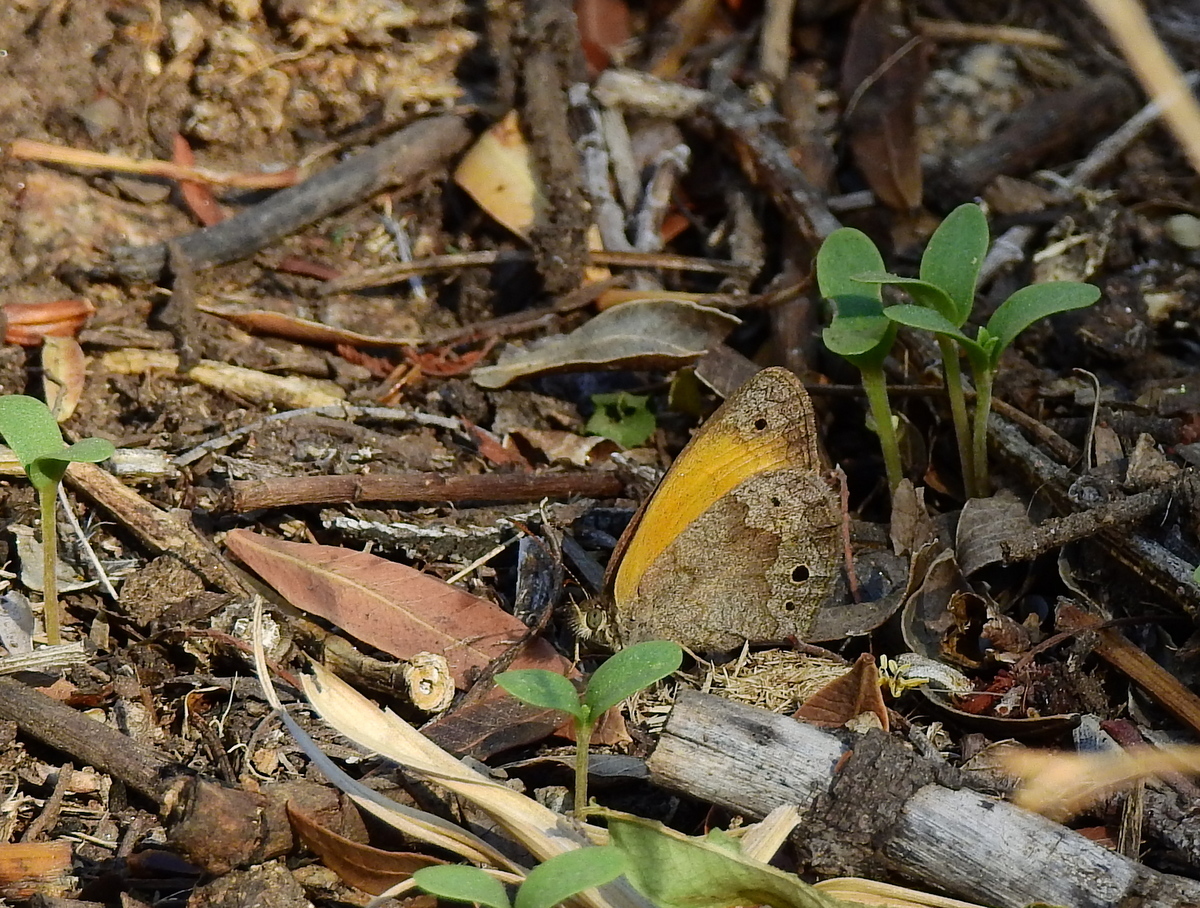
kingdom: Animalia
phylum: Arthropoda
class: Insecta
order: Lepidoptera
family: Nymphalidae
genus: Pharneuptychia
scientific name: Pharneuptychia phares
